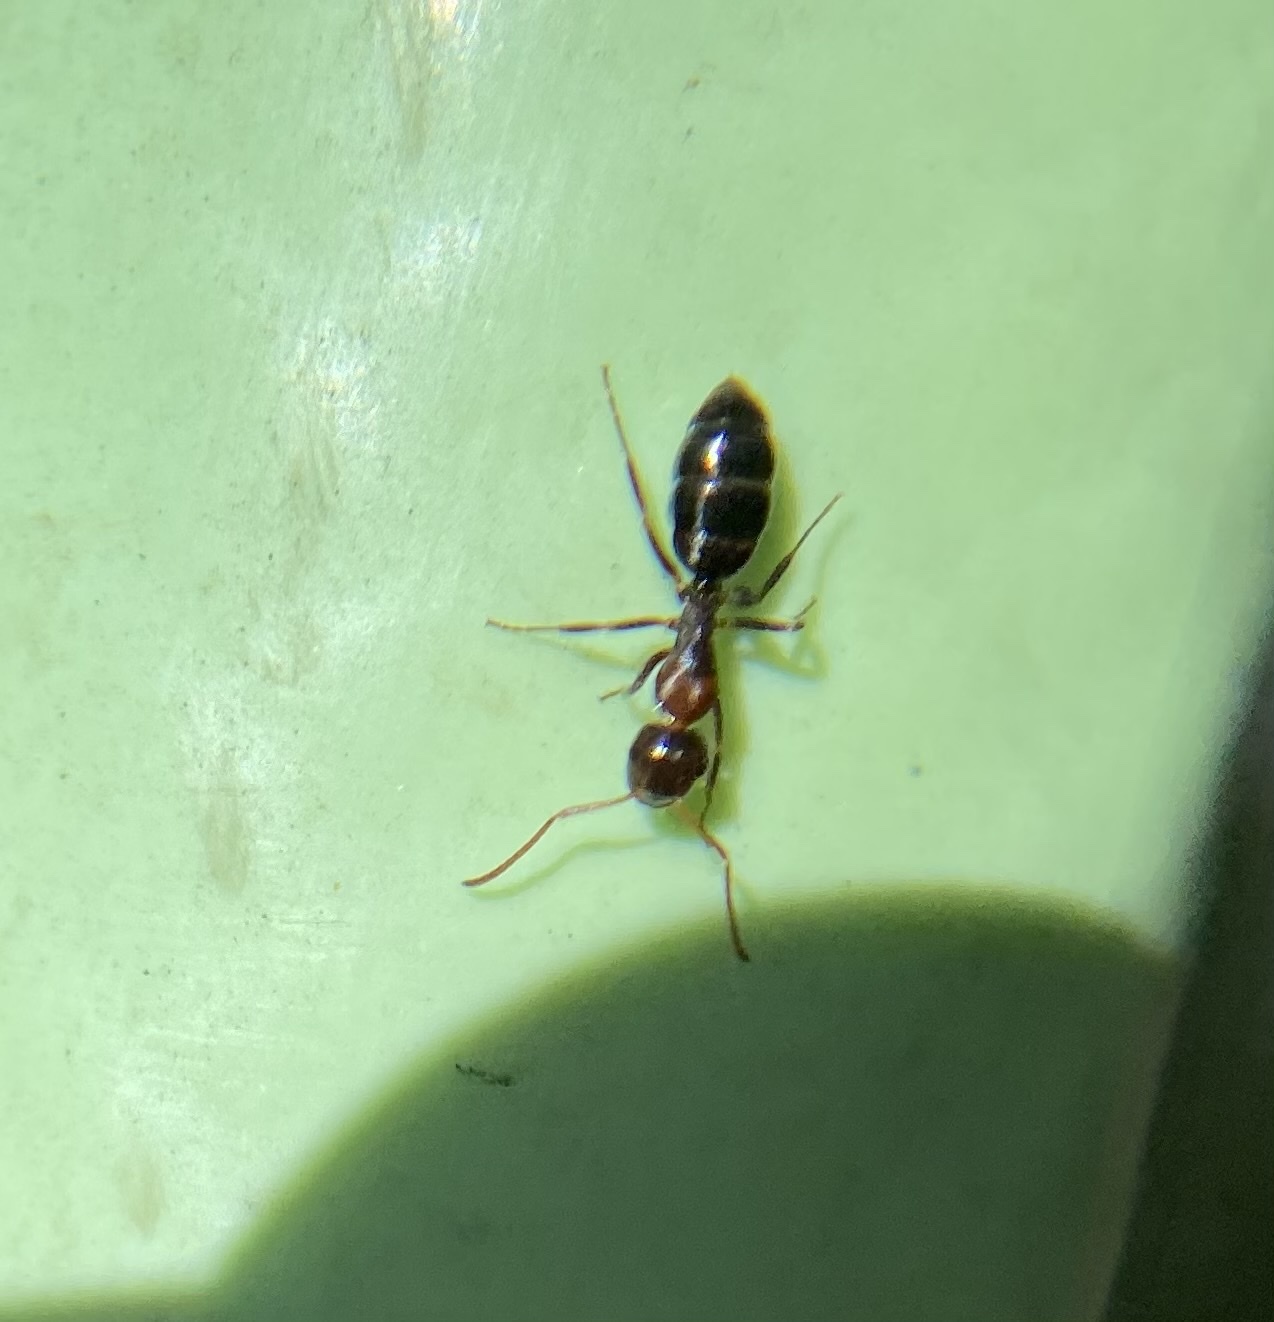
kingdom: Animalia
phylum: Arthropoda
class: Insecta
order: Hymenoptera
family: Formicidae
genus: Camponotus
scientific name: Camponotus hyatti
